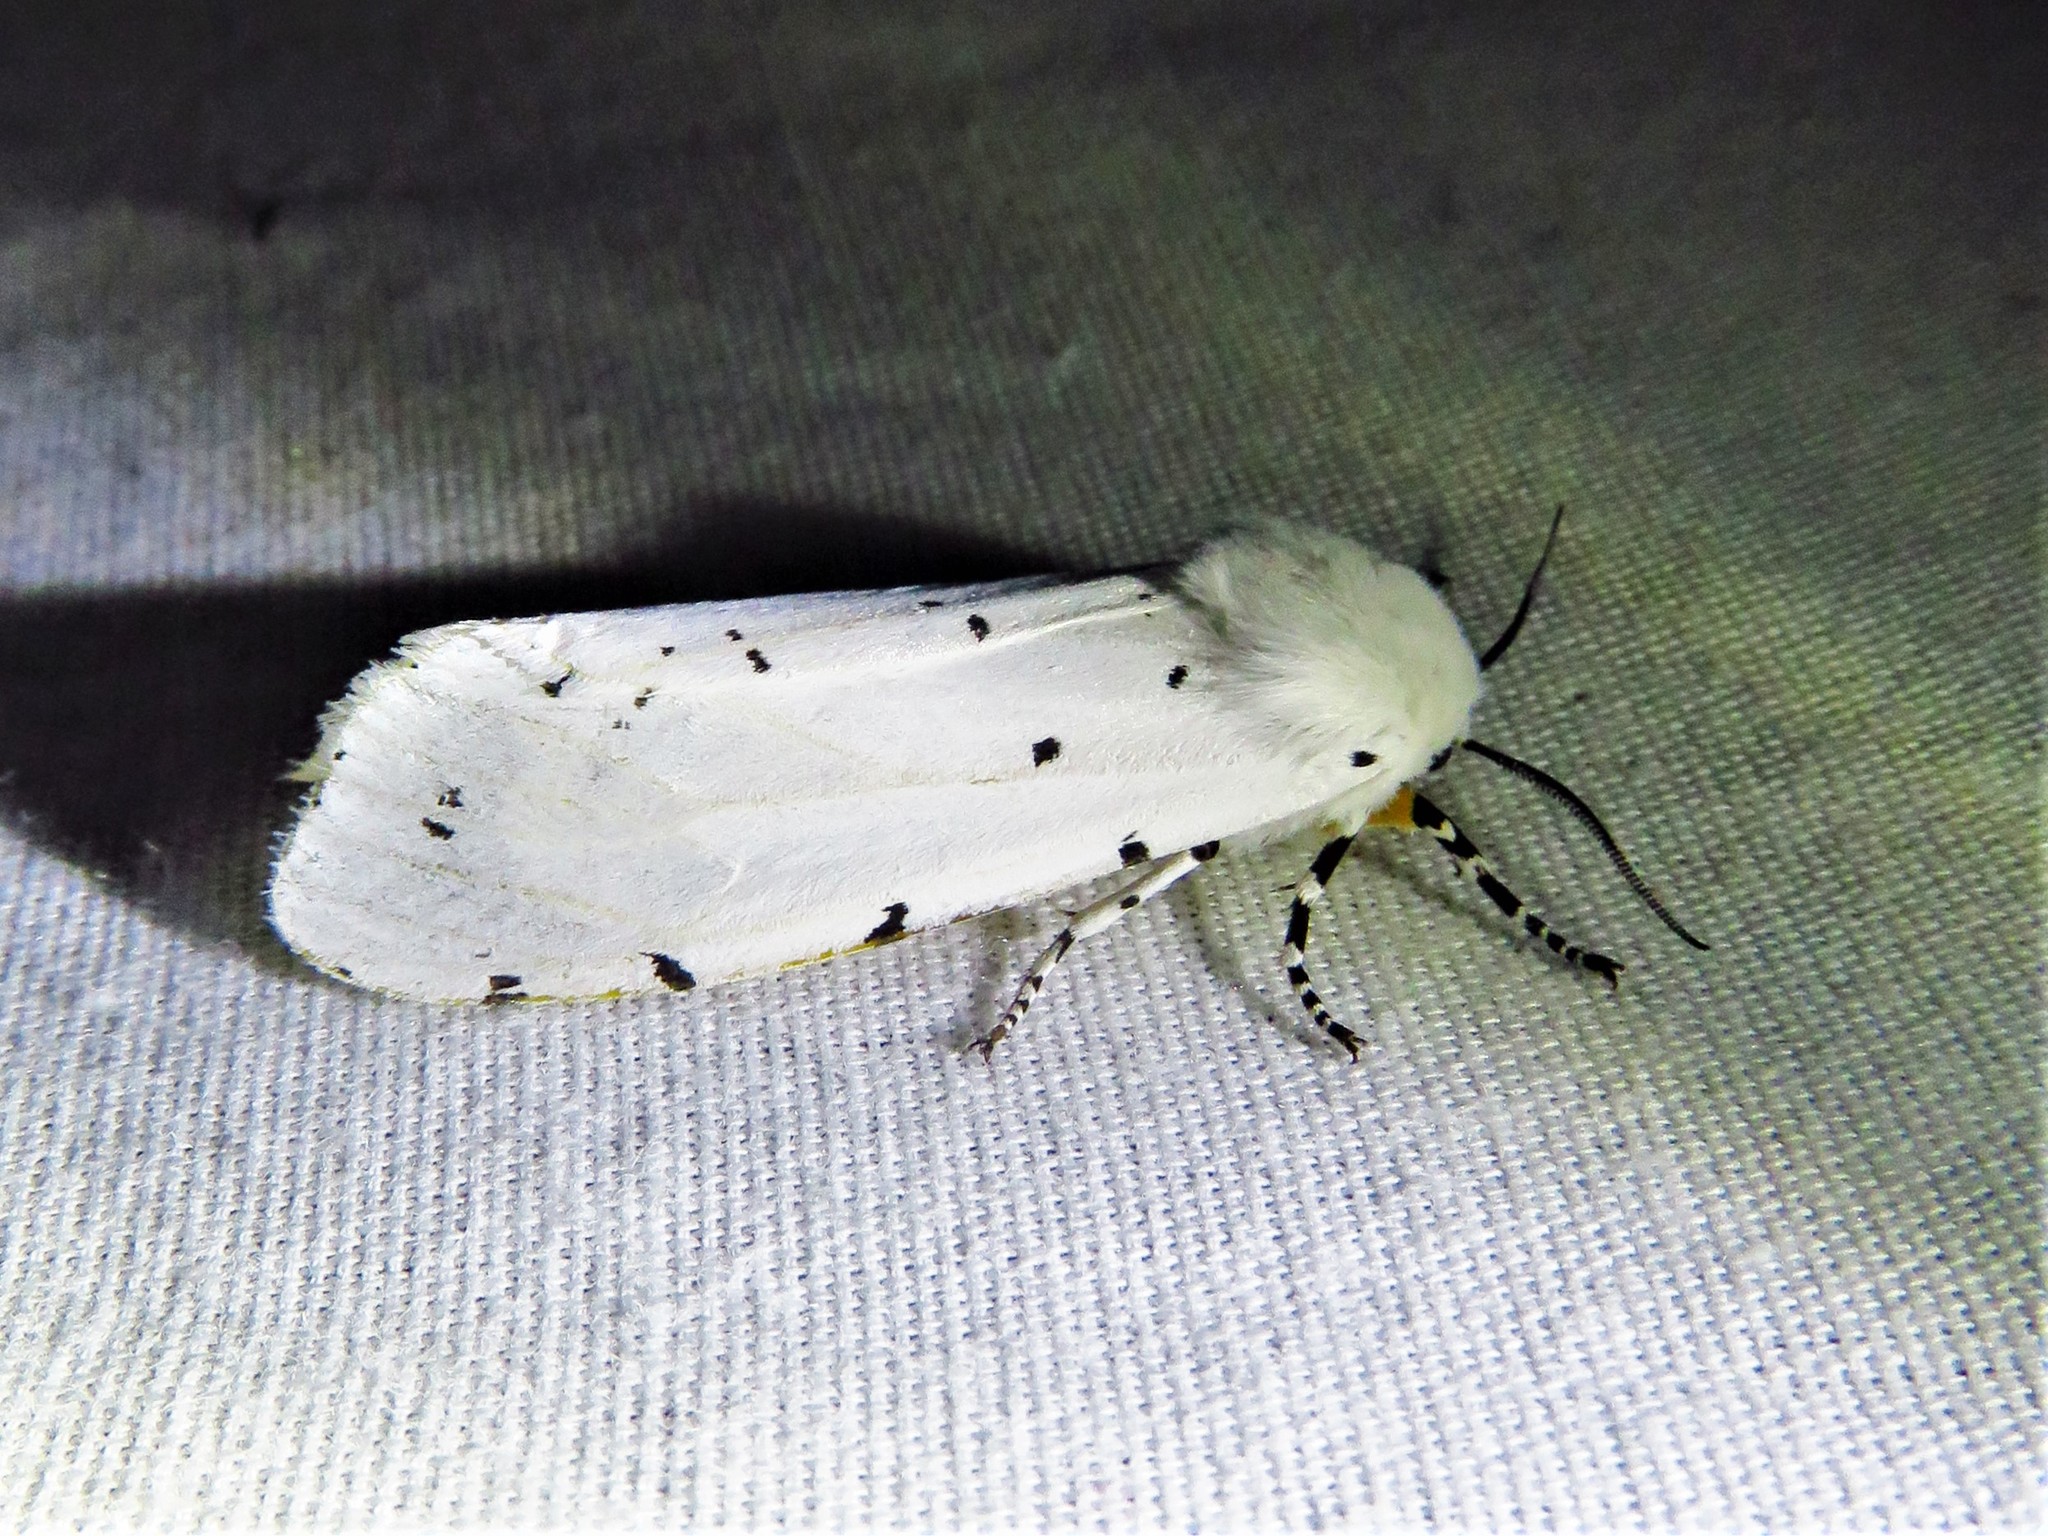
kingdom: Animalia
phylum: Arthropoda
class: Insecta
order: Lepidoptera
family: Erebidae
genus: Estigmene
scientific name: Estigmene acrea
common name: Salt marsh moth
